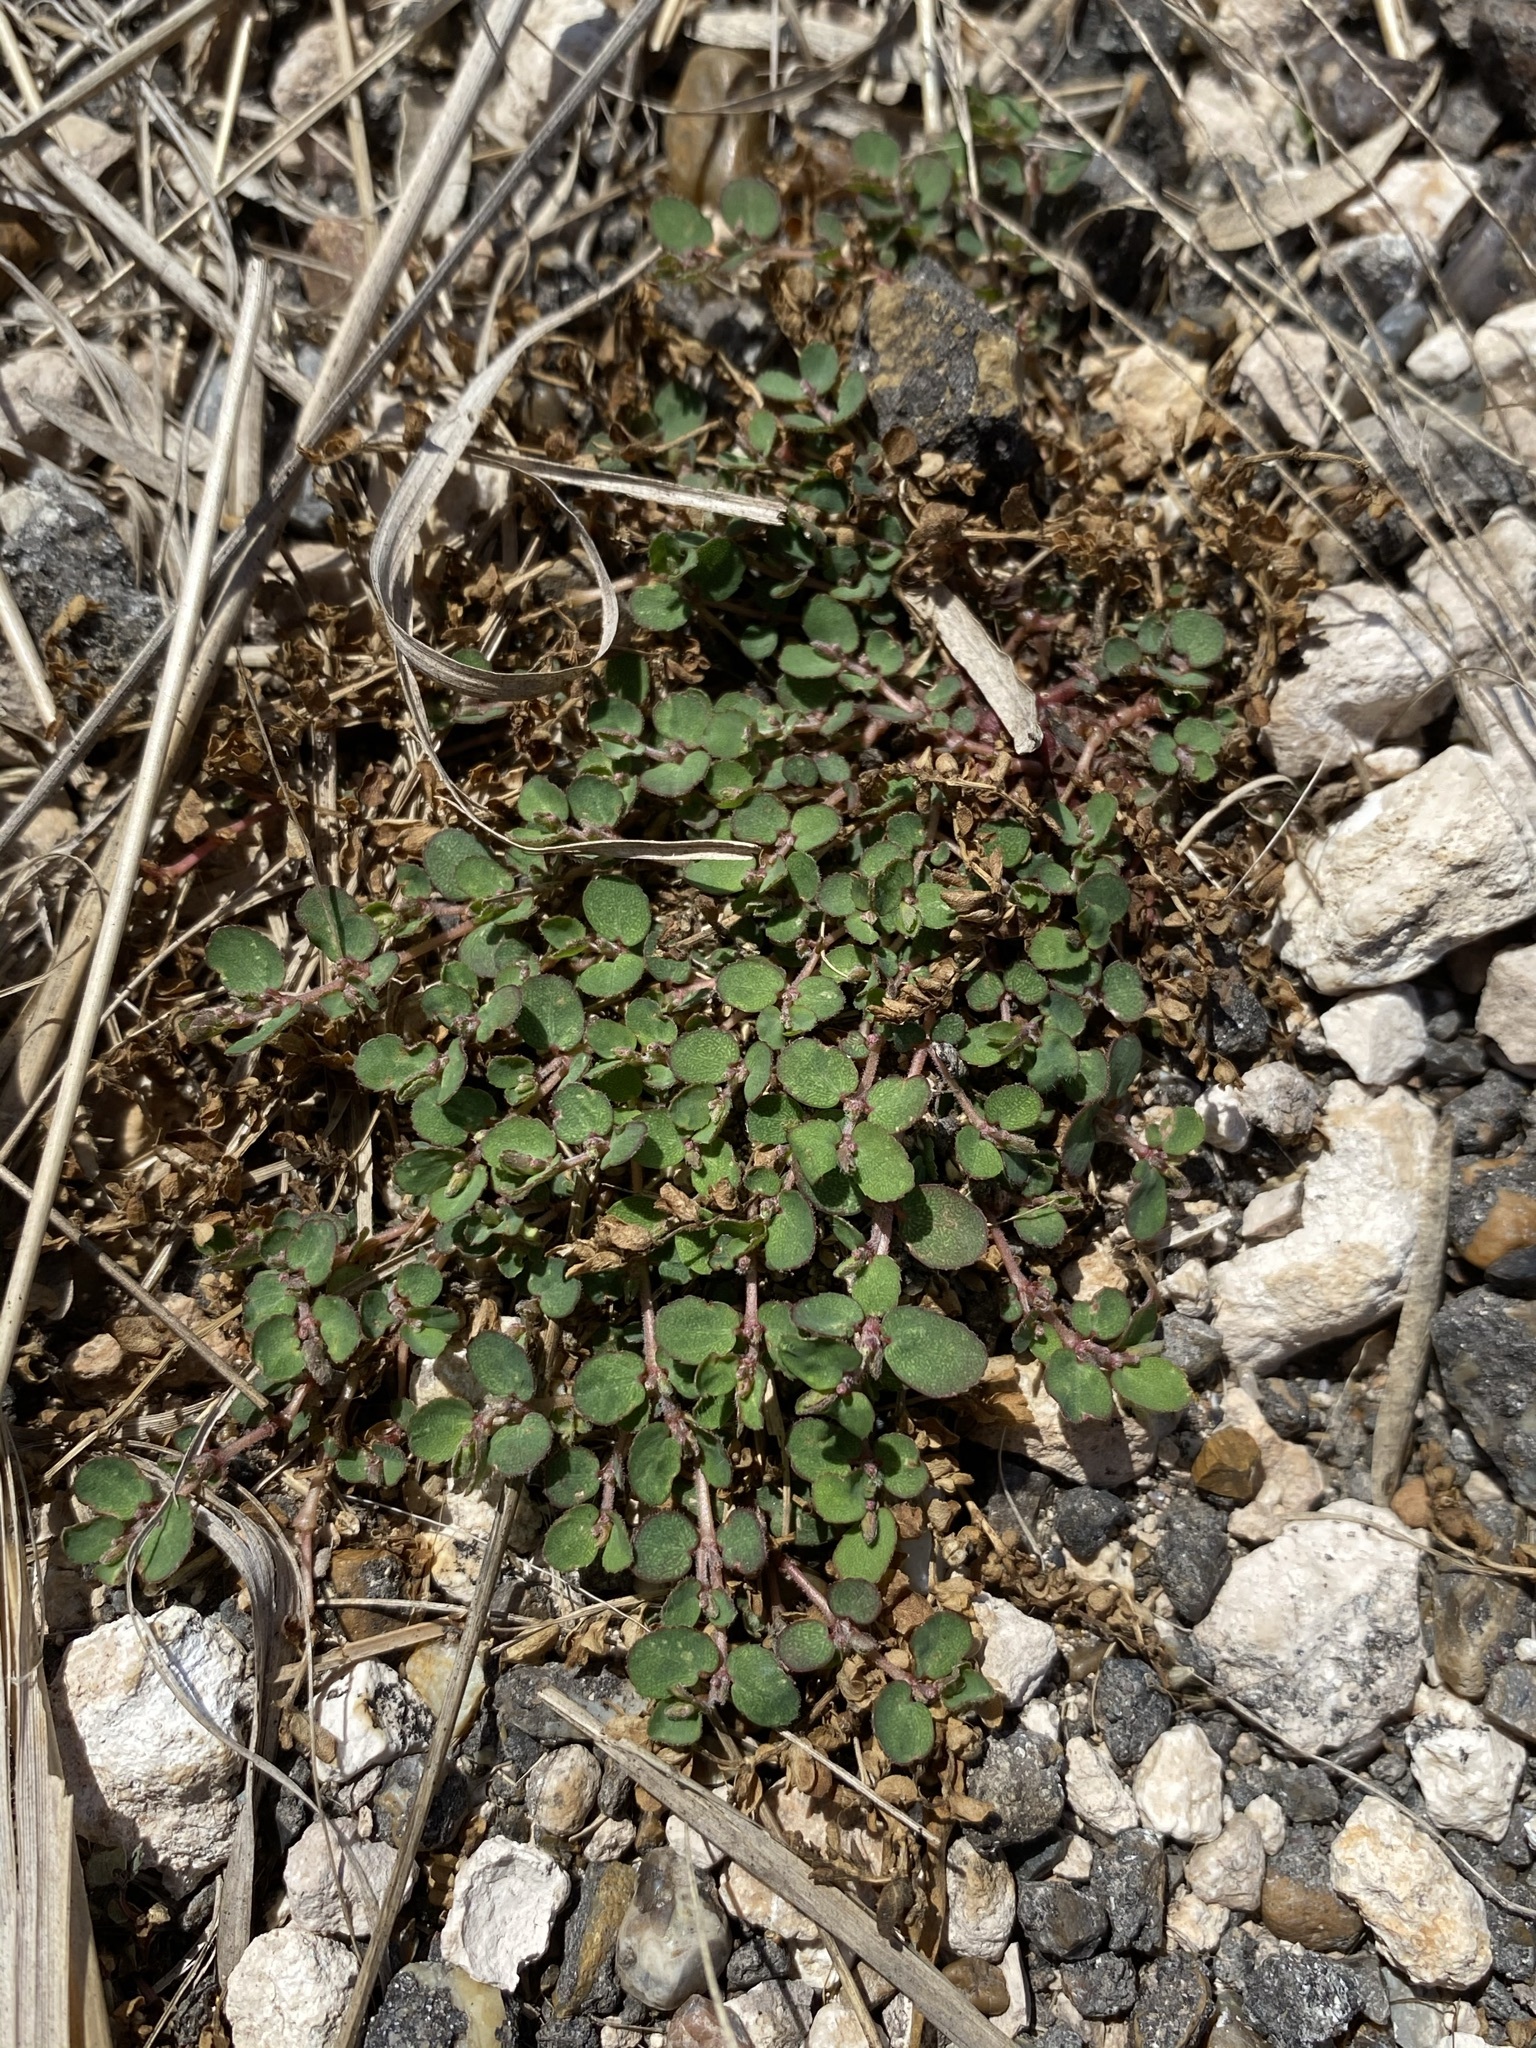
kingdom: Plantae
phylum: Tracheophyta
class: Magnoliopsida
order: Malpighiales
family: Euphorbiaceae
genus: Euphorbia
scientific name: Euphorbia prostrata
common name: Prostrate sandmat
